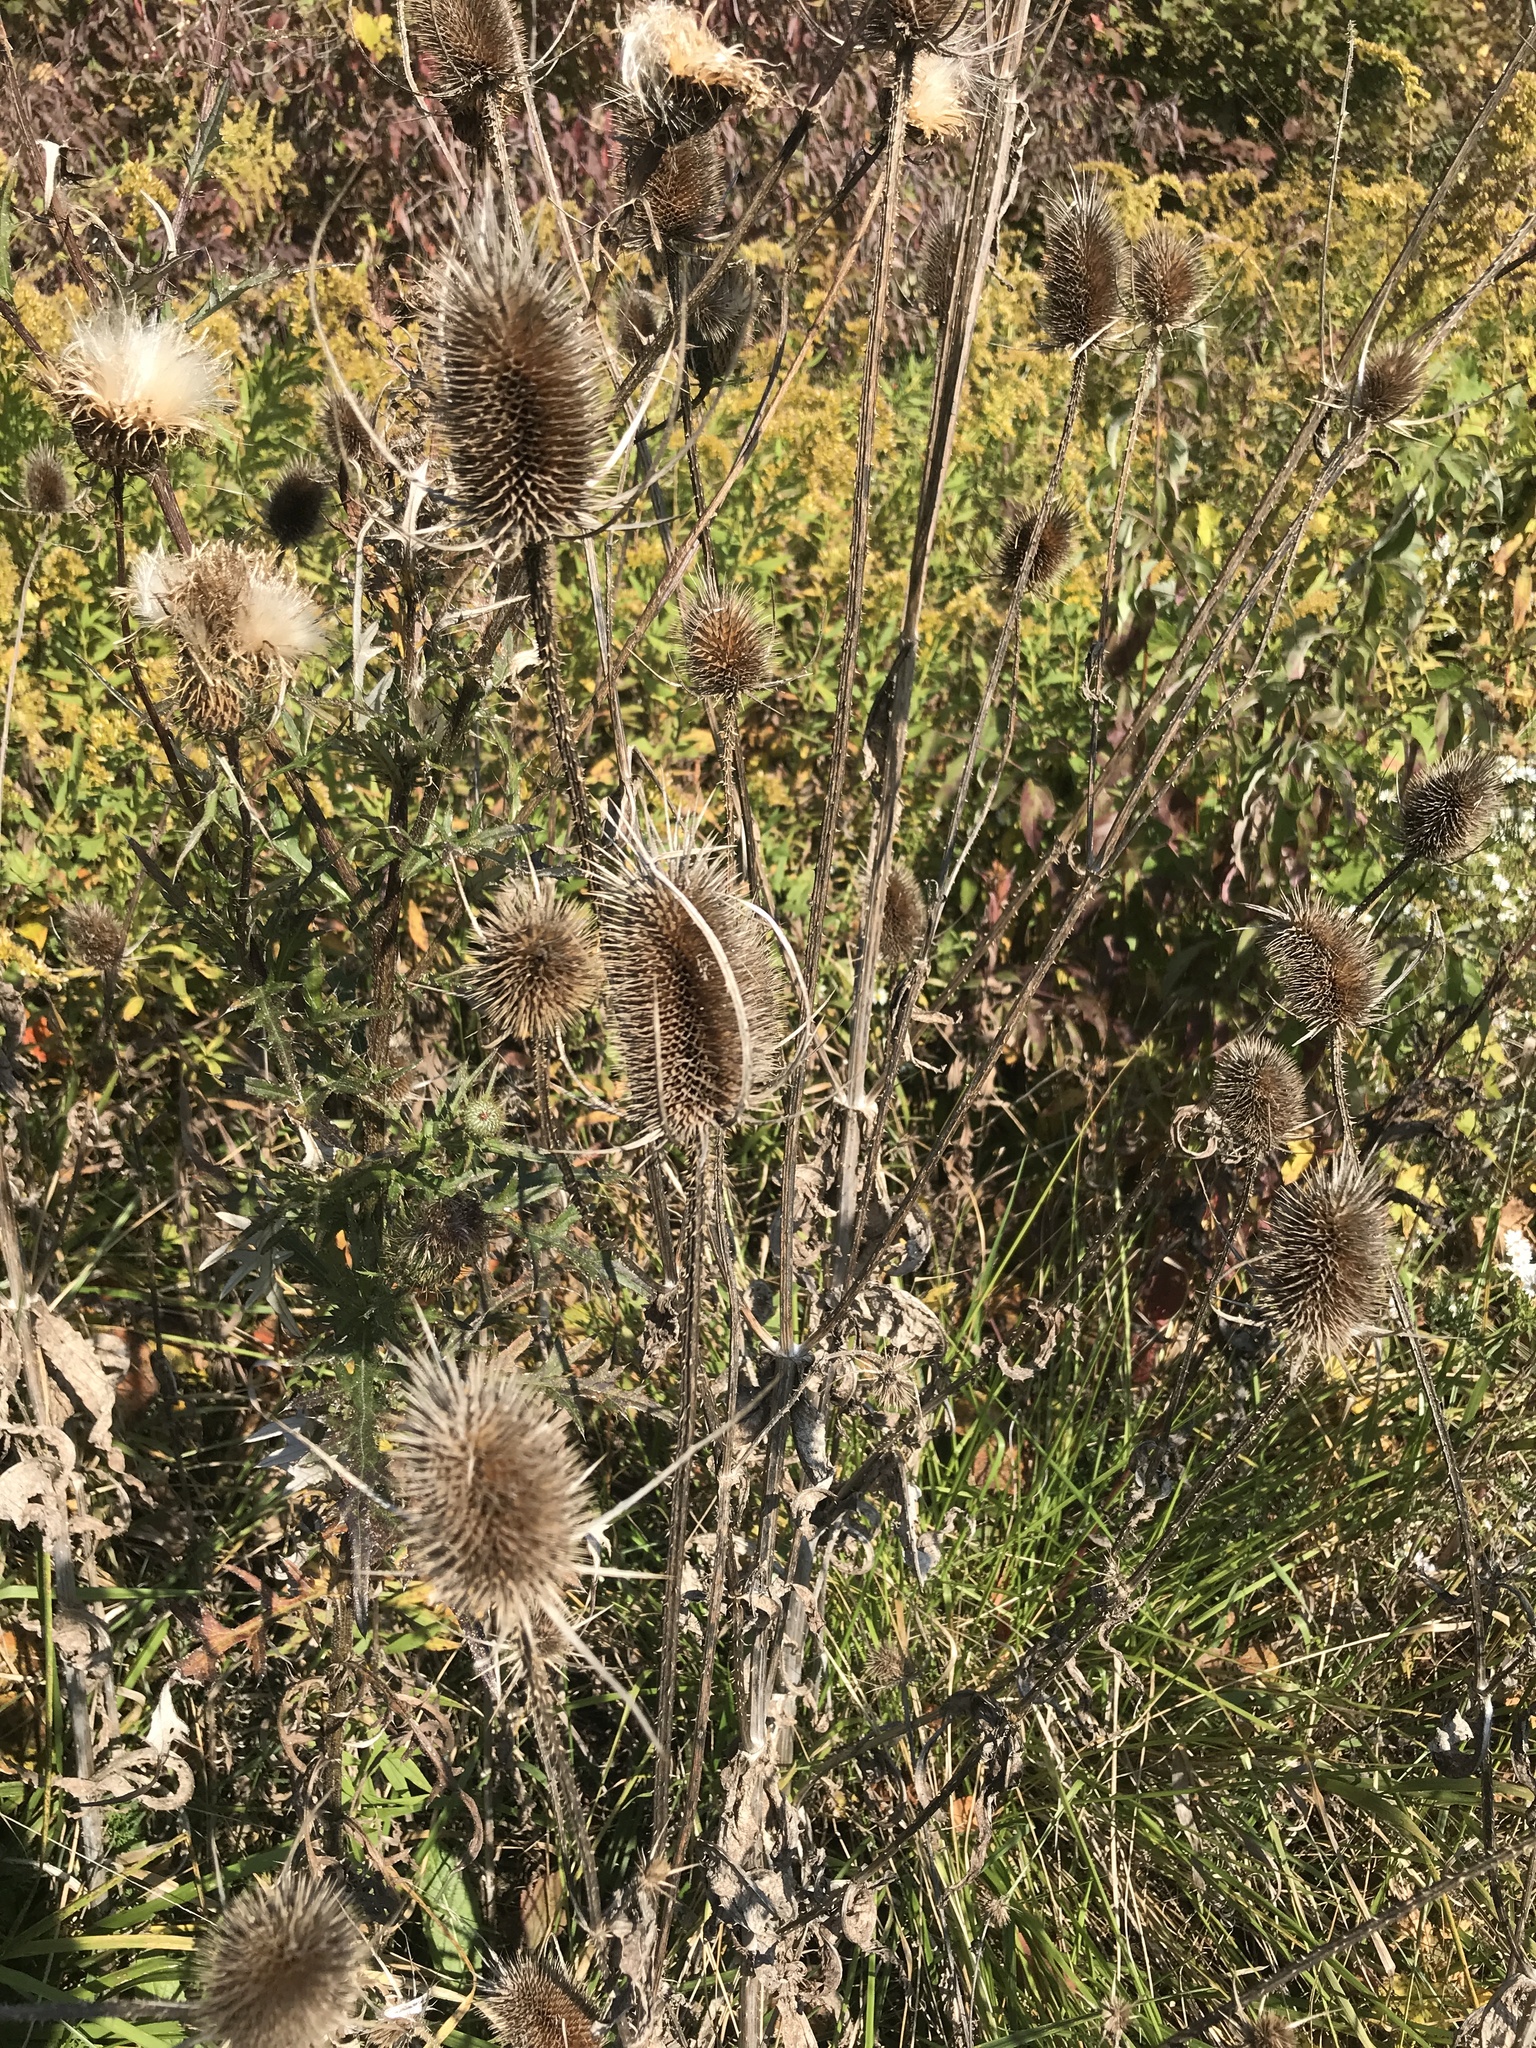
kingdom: Plantae
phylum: Tracheophyta
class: Magnoliopsida
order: Dipsacales
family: Caprifoliaceae
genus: Dipsacus
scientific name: Dipsacus fullonum
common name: Teasel
